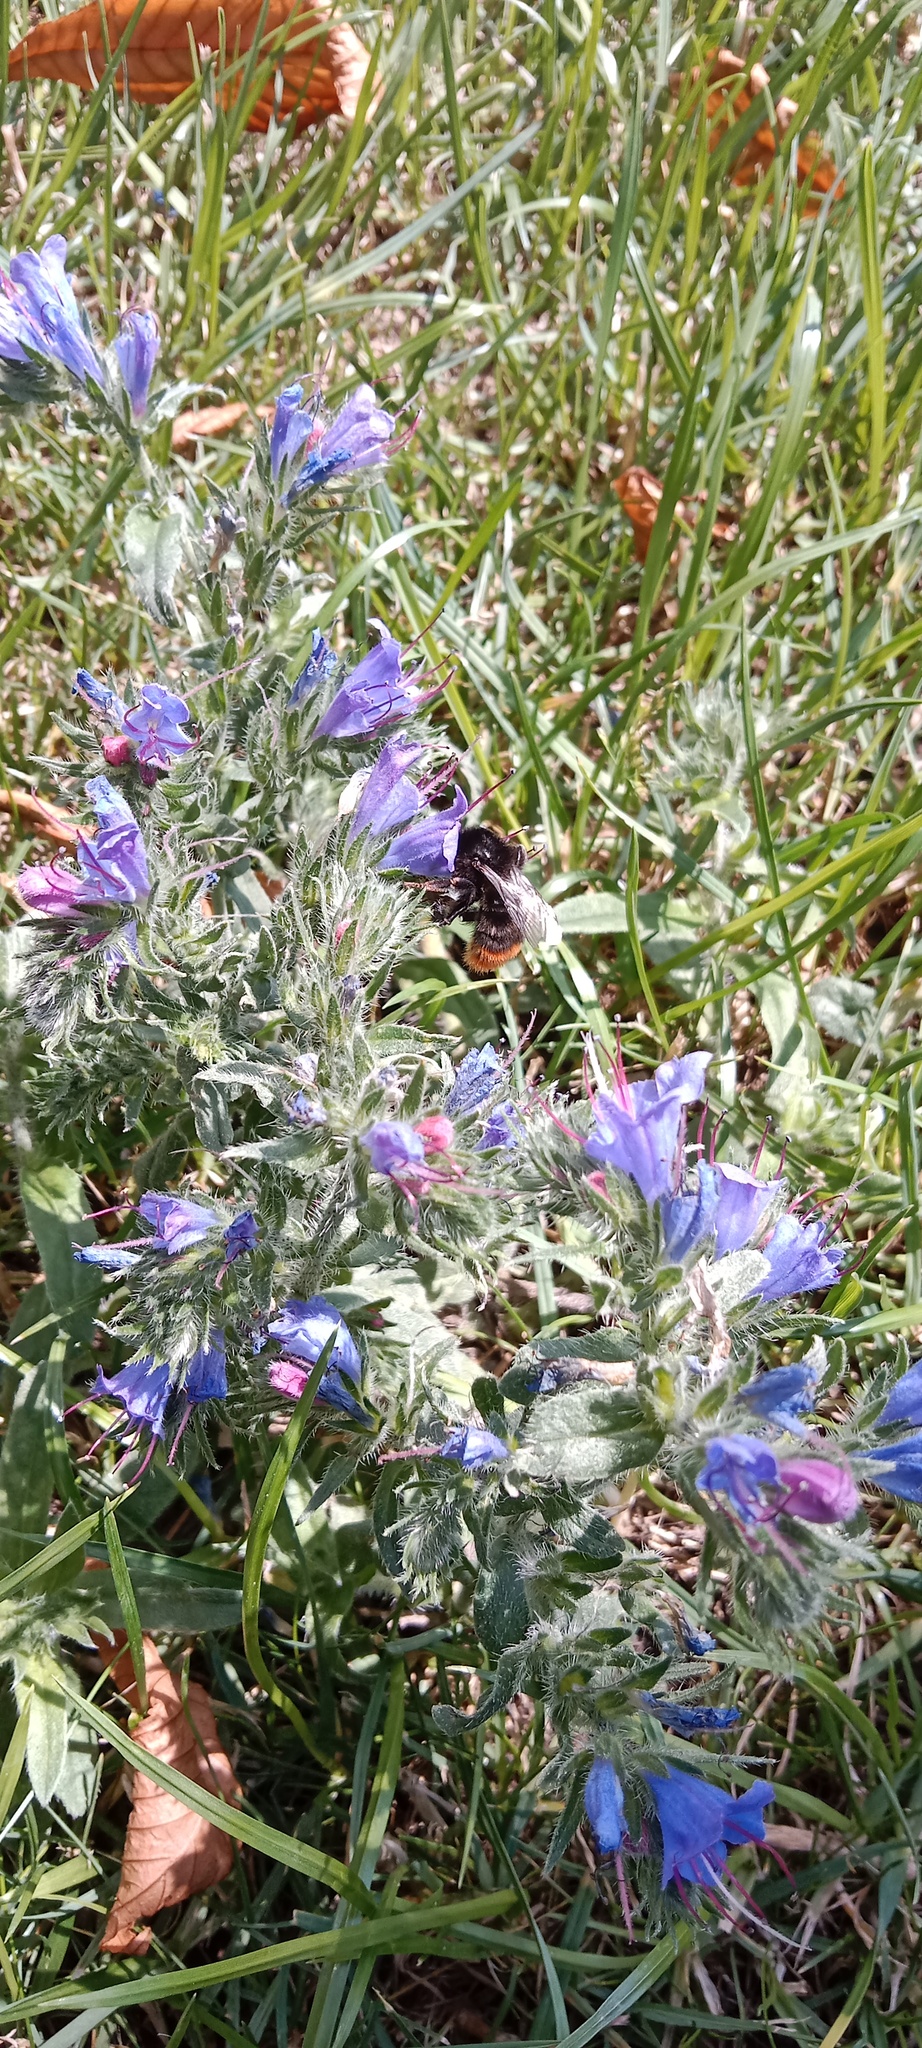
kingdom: Plantae
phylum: Tracheophyta
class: Magnoliopsida
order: Boraginales
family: Boraginaceae
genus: Echium
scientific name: Echium vulgare
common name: Common viper's bugloss
